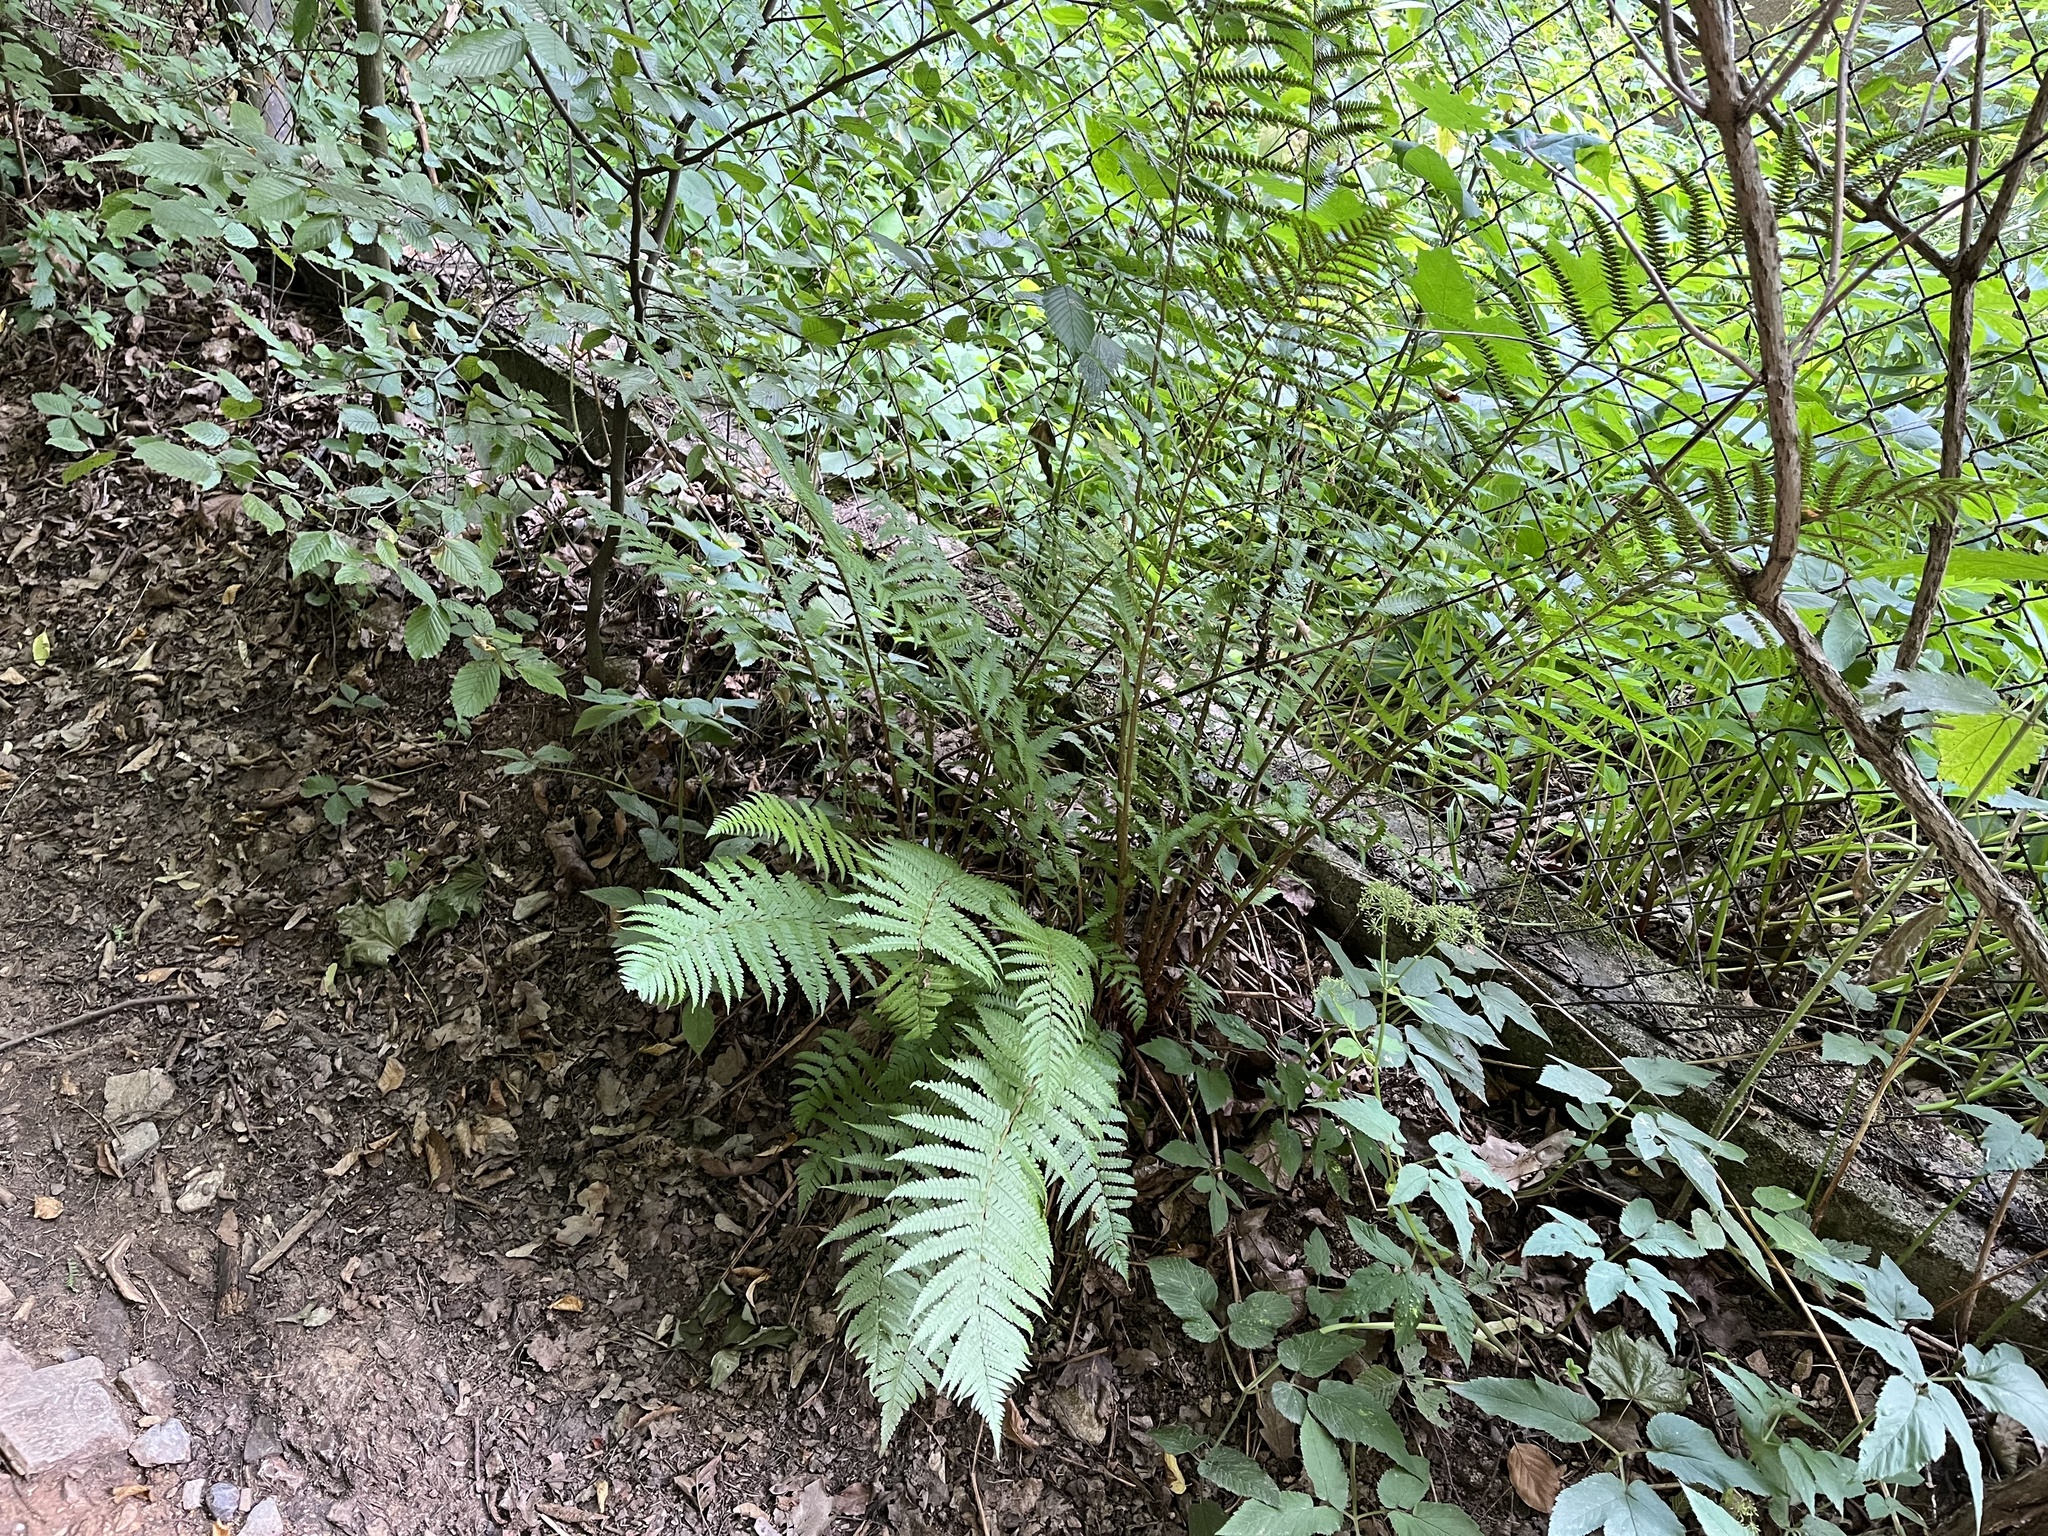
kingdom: Plantae
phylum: Tracheophyta
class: Polypodiopsida
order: Polypodiales
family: Dryopteridaceae
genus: Dryopteris
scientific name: Dryopteris filix-mas
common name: Male fern
